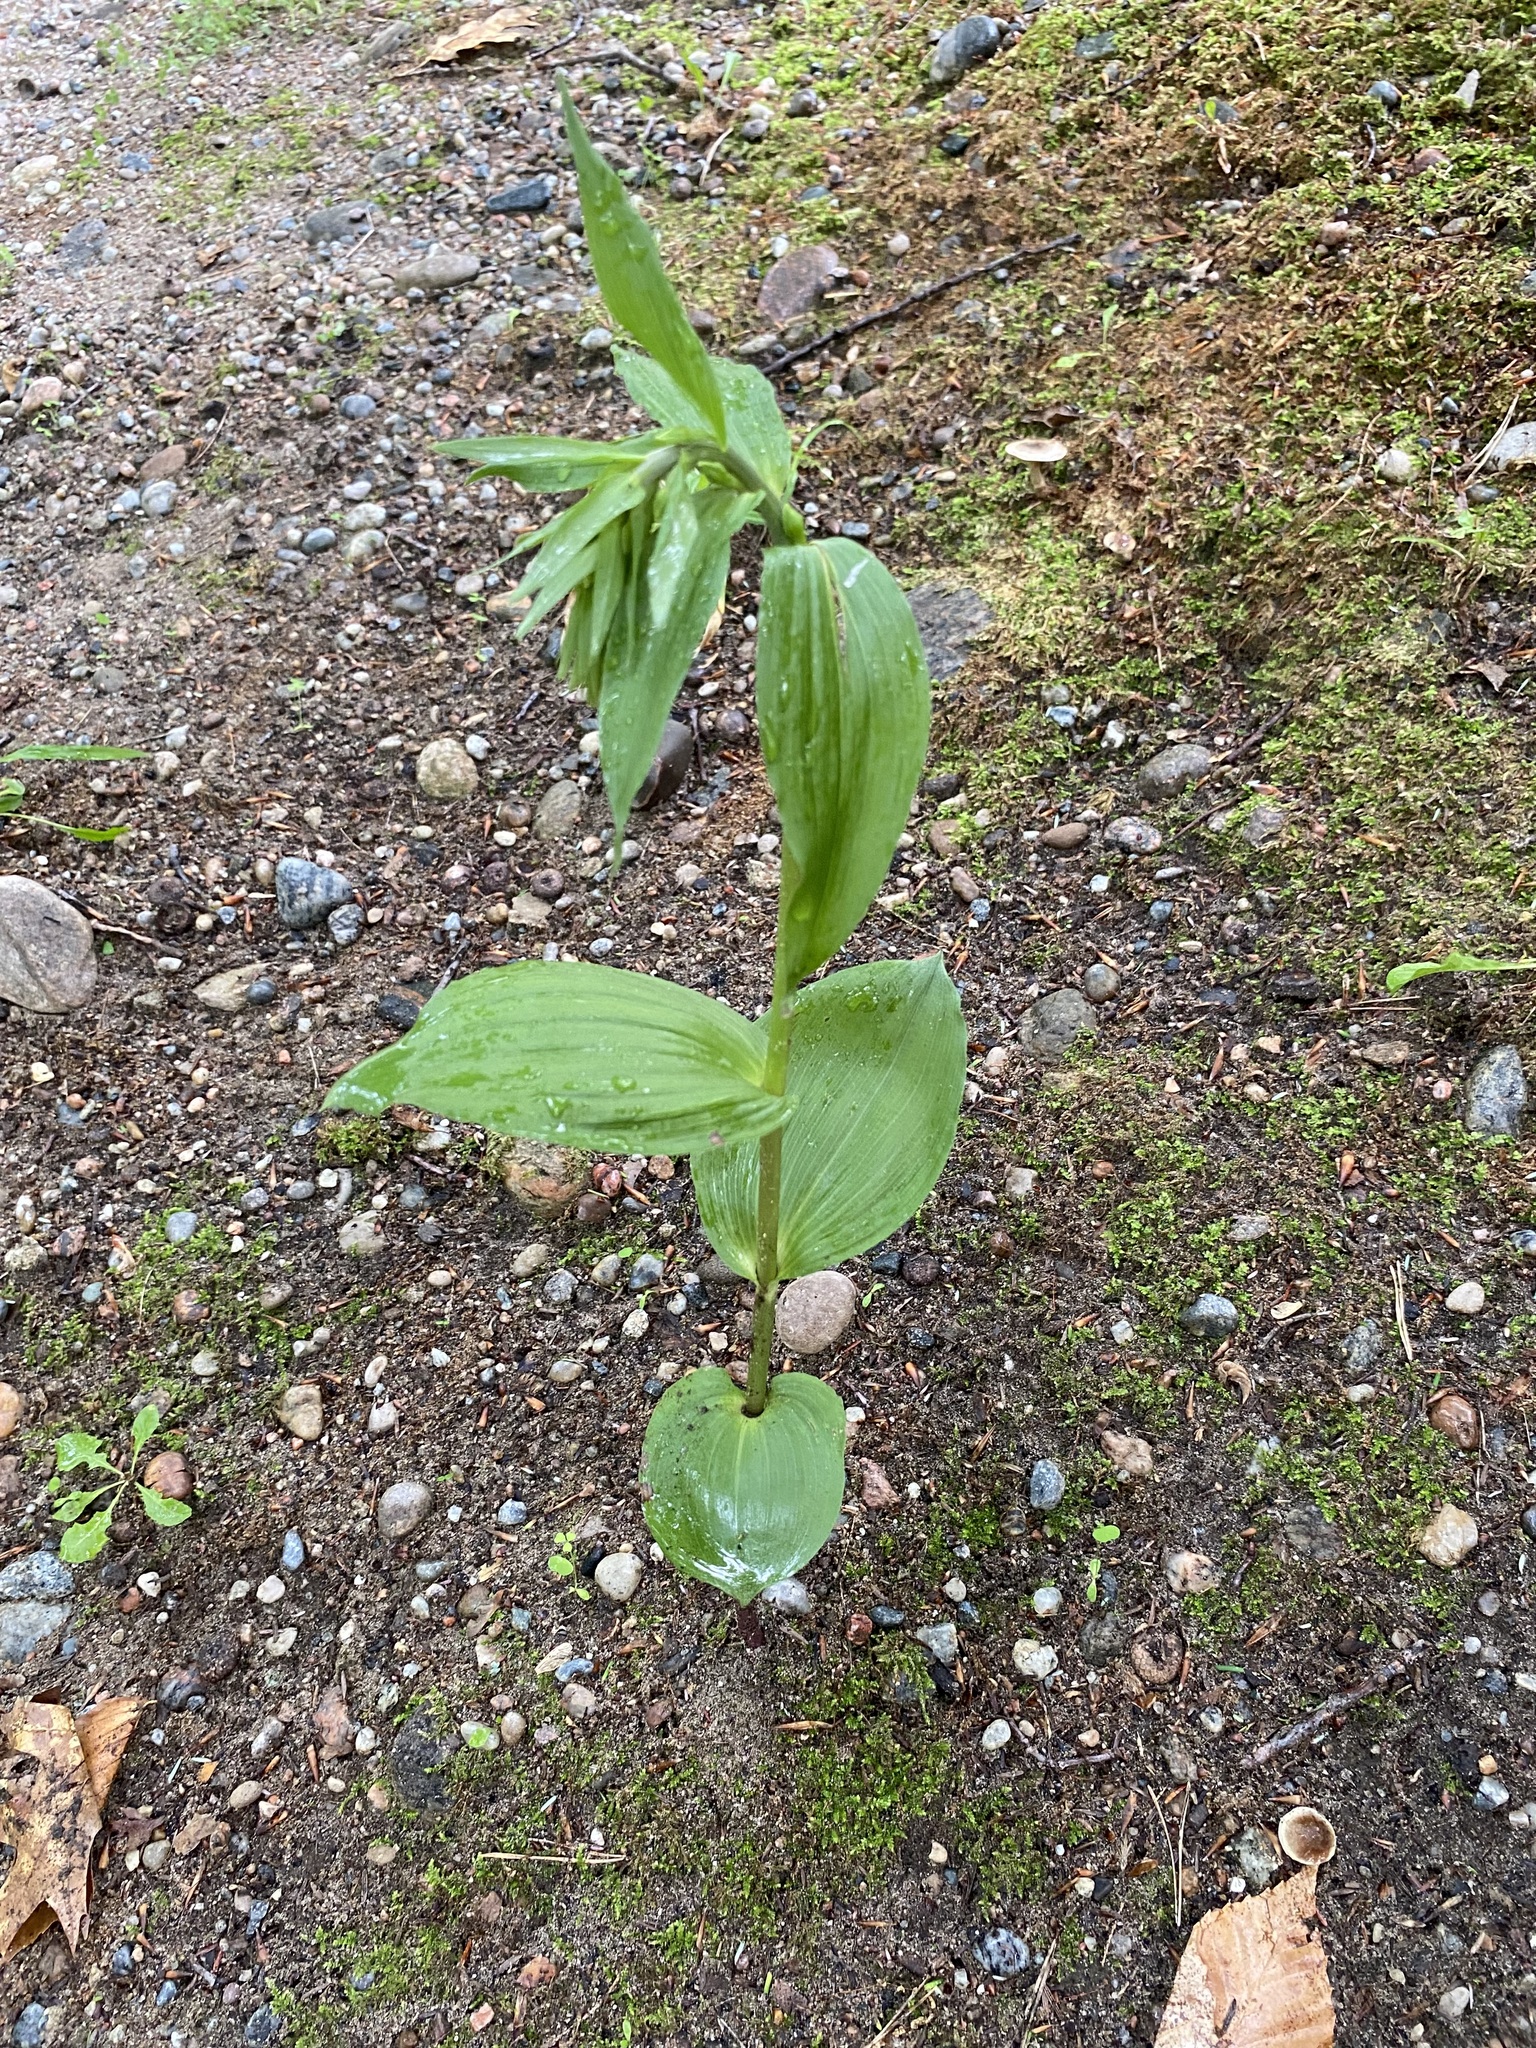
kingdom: Plantae
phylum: Tracheophyta
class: Liliopsida
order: Asparagales
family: Orchidaceae
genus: Epipactis
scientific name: Epipactis helleborine
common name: Broad-leaved helleborine
